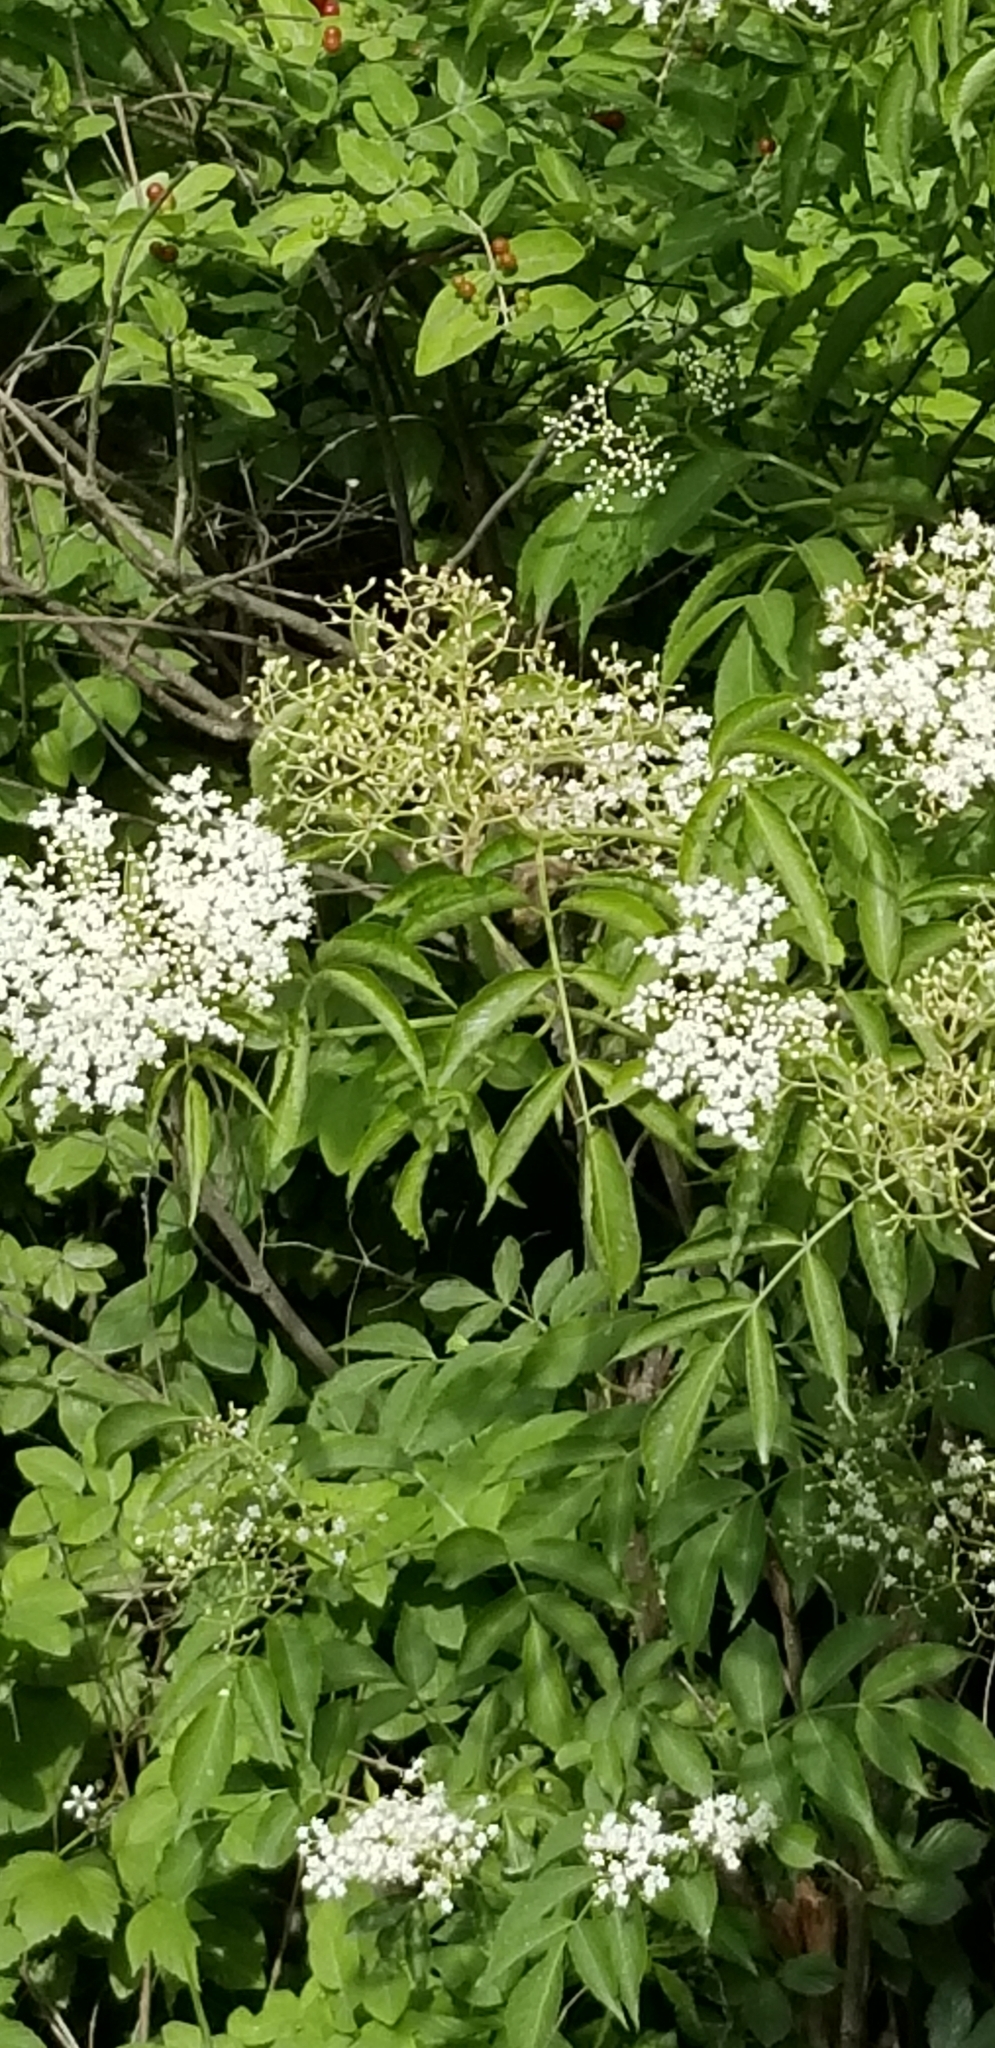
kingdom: Plantae
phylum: Tracheophyta
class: Magnoliopsida
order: Dipsacales
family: Viburnaceae
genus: Sambucus
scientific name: Sambucus canadensis
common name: American elder
